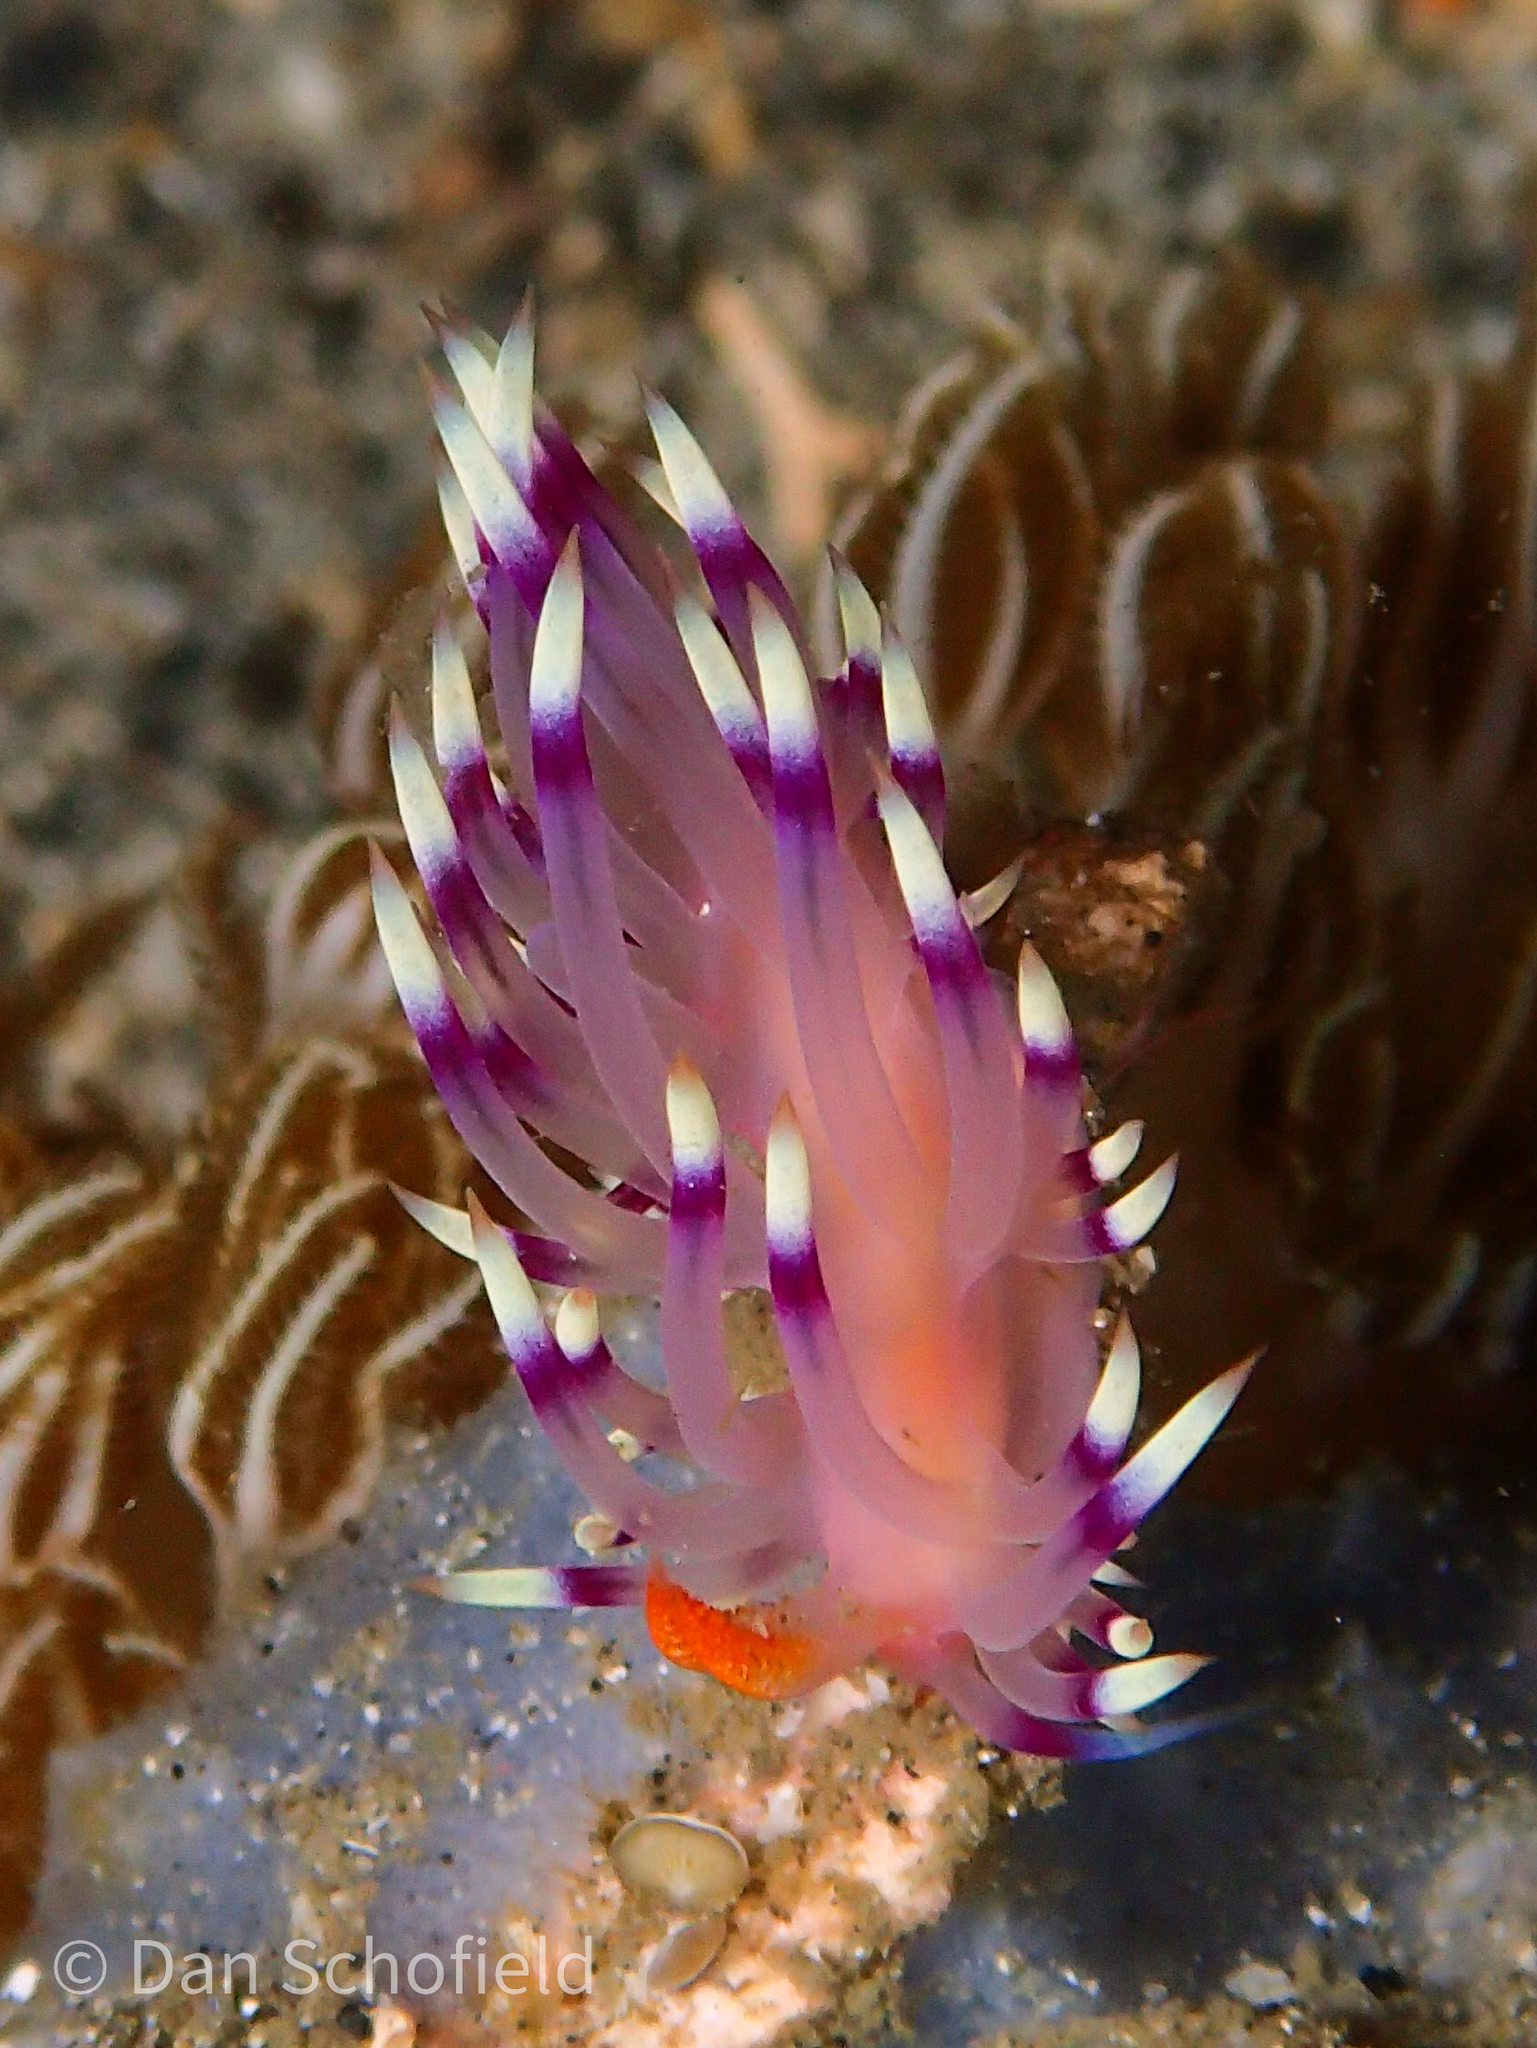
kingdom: Animalia
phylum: Mollusca
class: Gastropoda
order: Nudibranchia
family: Flabellinidae
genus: Coryphellina
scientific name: Coryphellina exoptata
